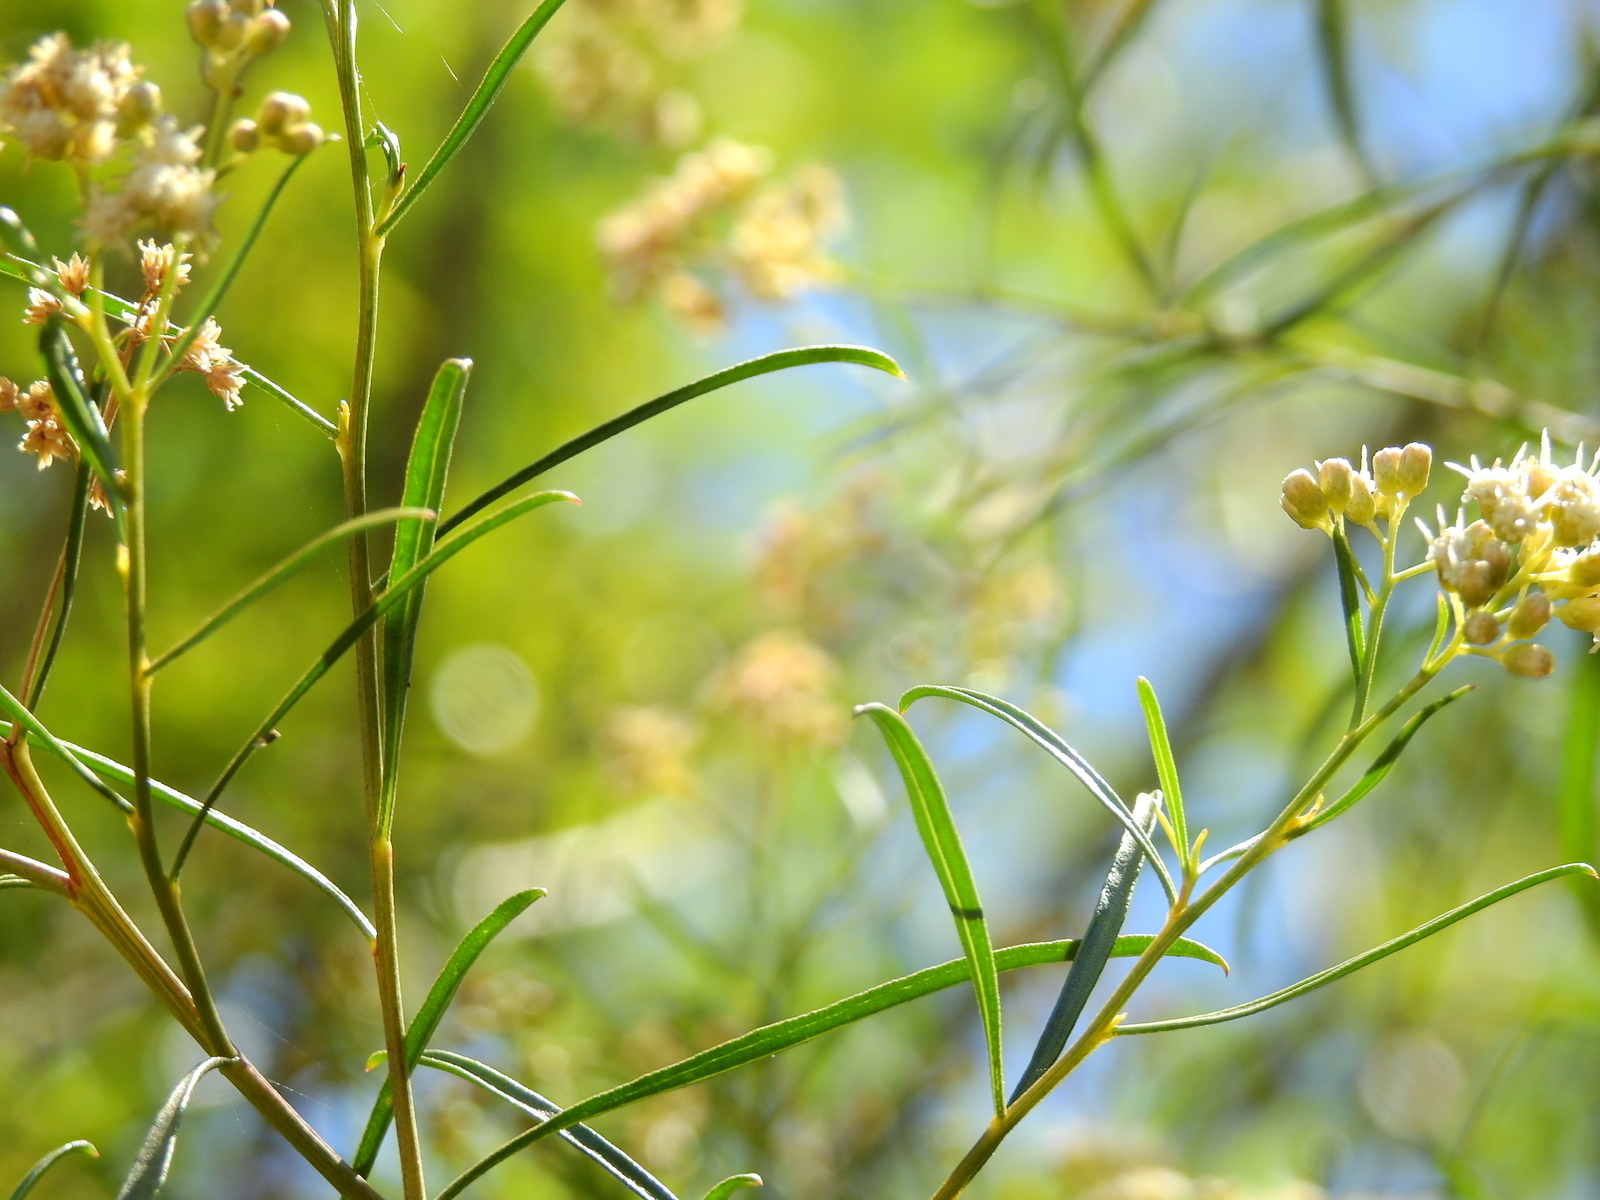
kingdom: Plantae
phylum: Tracheophyta
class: Magnoliopsida
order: Asterales
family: Asteraceae
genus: Baccharis
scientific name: Baccharis salicifolia
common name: Sticky baccharis
